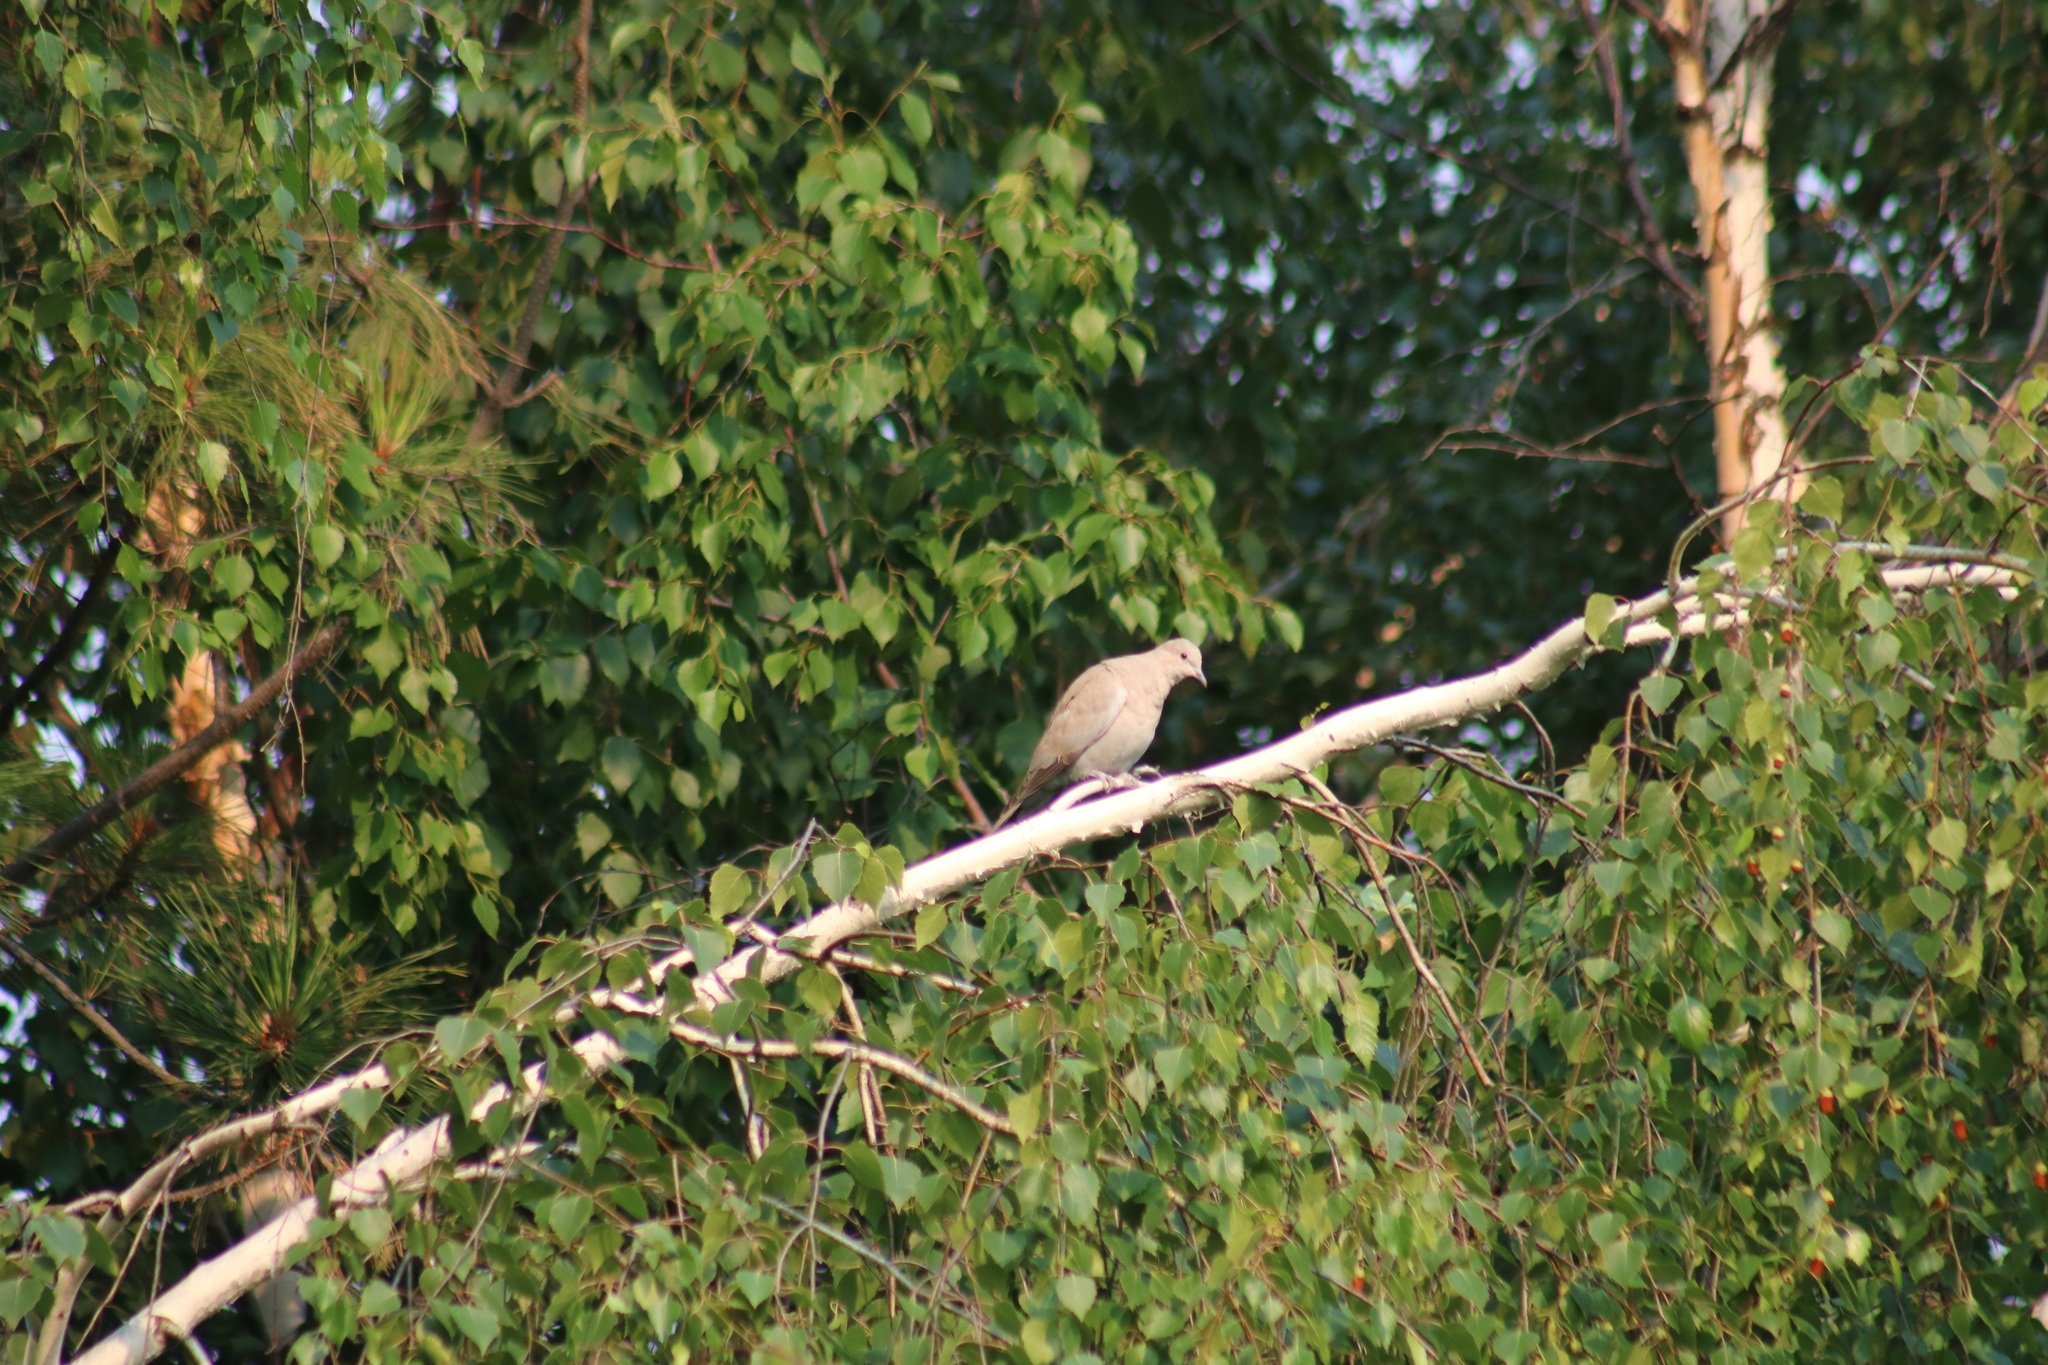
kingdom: Animalia
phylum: Chordata
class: Aves
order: Columbiformes
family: Columbidae
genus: Streptopelia
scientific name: Streptopelia decaocto
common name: Eurasian collared dove
